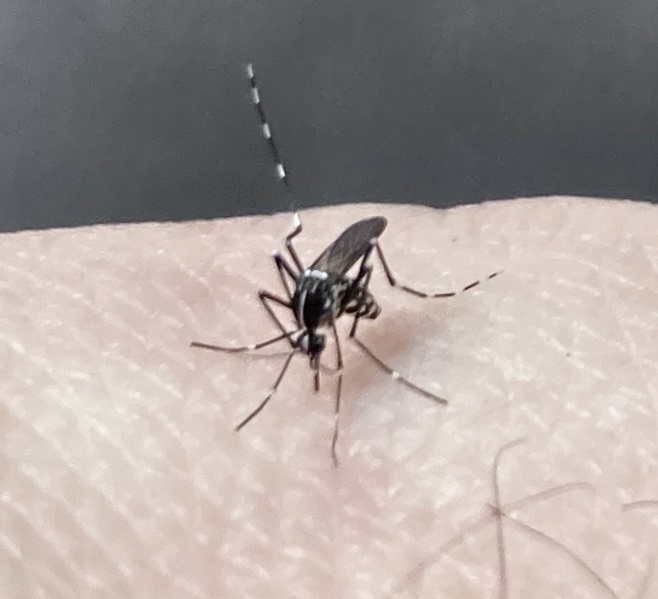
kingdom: Animalia
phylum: Arthropoda
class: Insecta
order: Diptera
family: Culicidae
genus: Aedes
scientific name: Aedes albopictus
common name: Tiger mosquito
